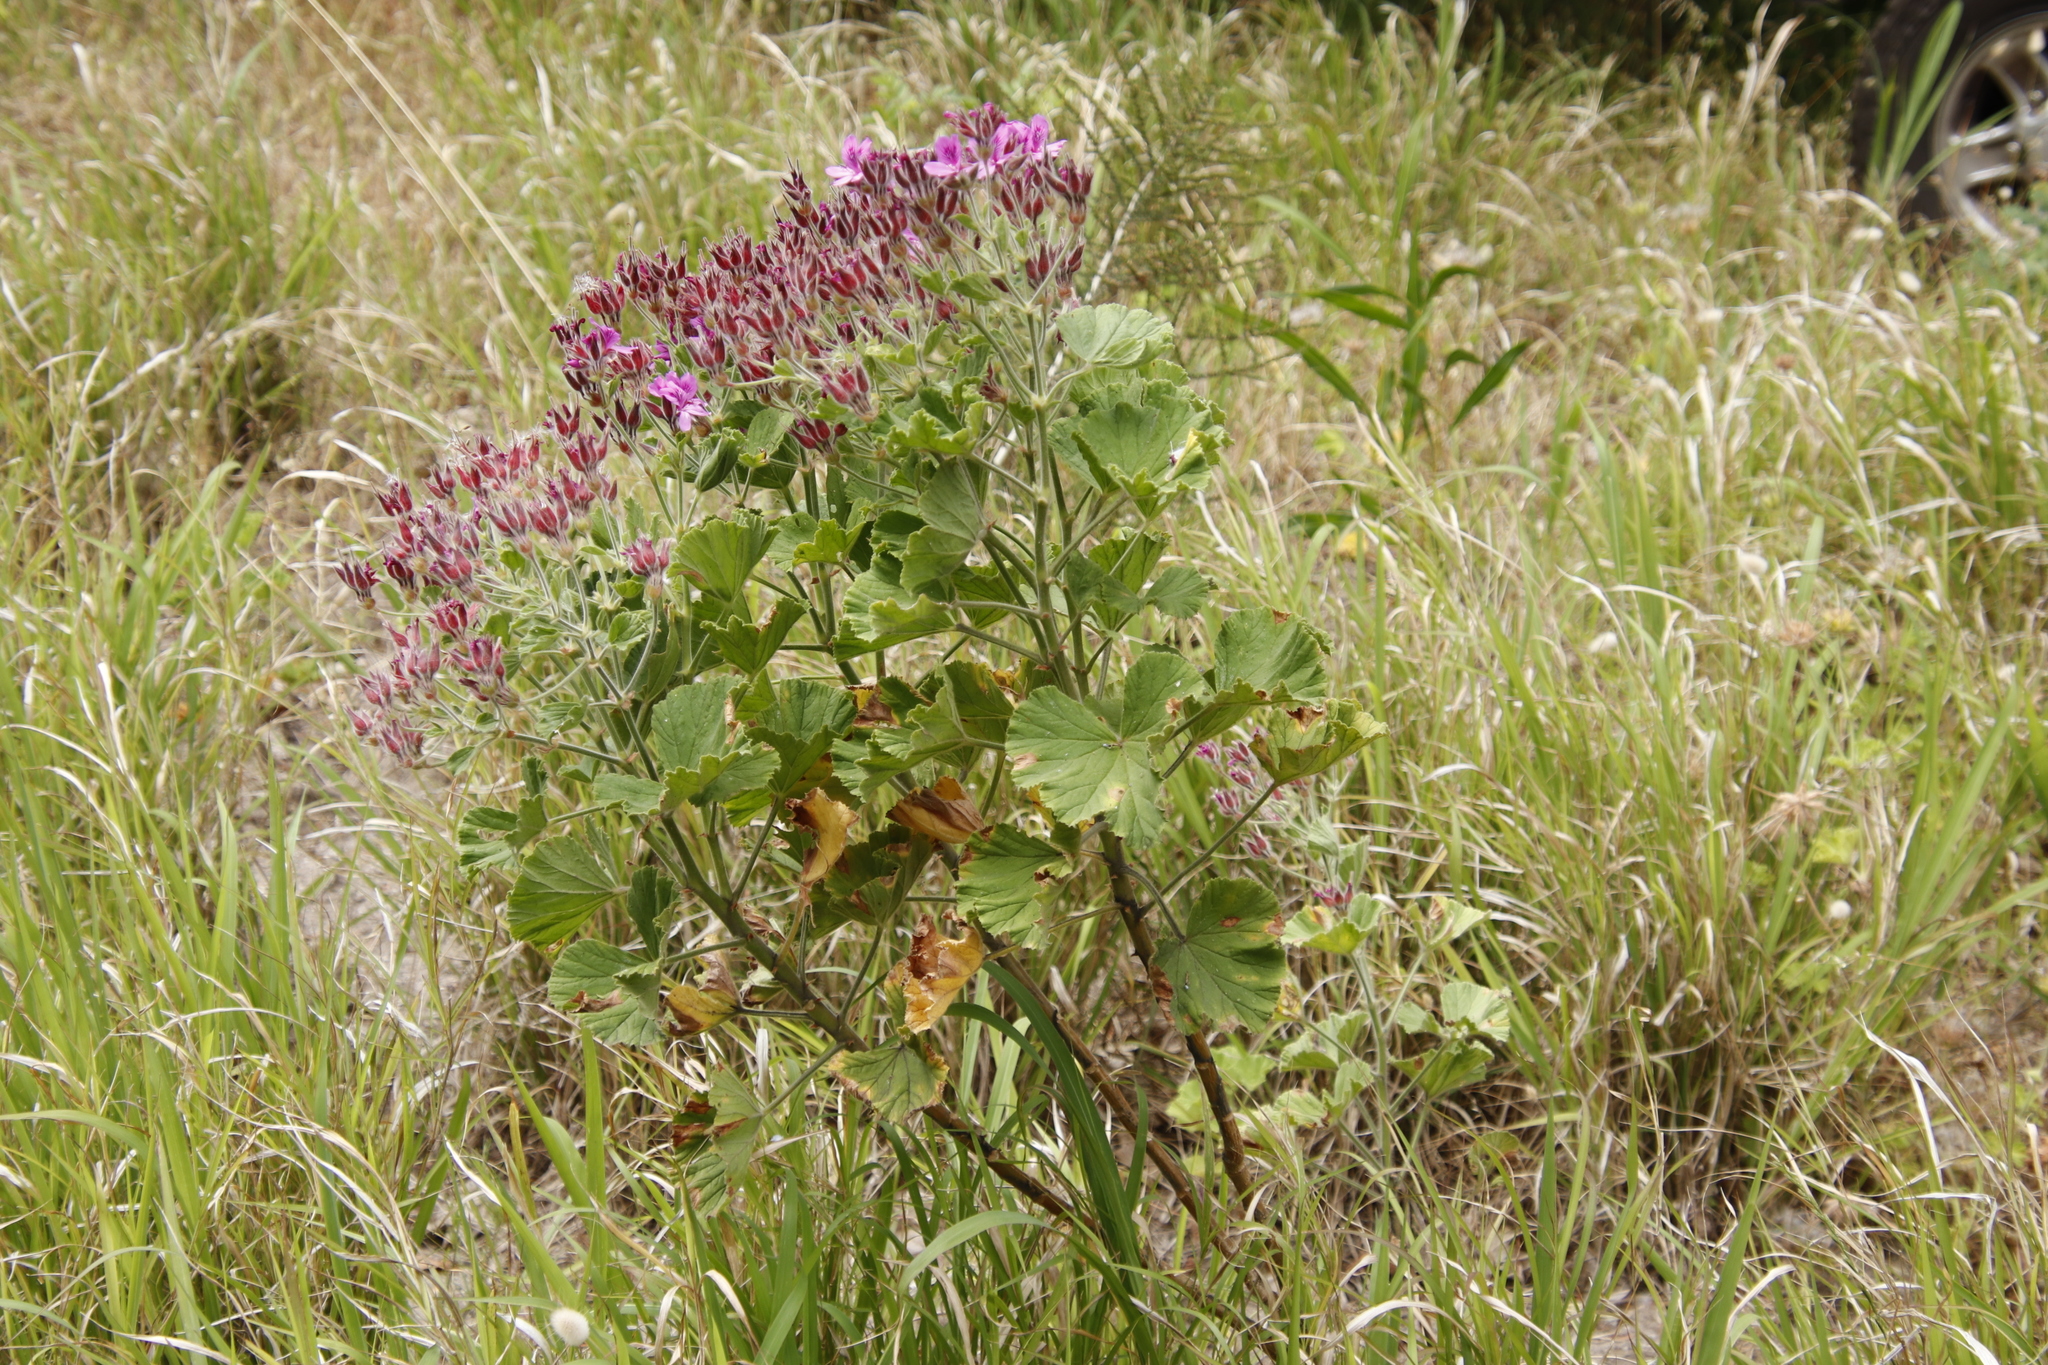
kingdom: Plantae
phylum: Tracheophyta
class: Magnoliopsida
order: Geraniales
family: Geraniaceae
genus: Pelargonium
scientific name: Pelargonium cucullatum
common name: Tree pelargonium
